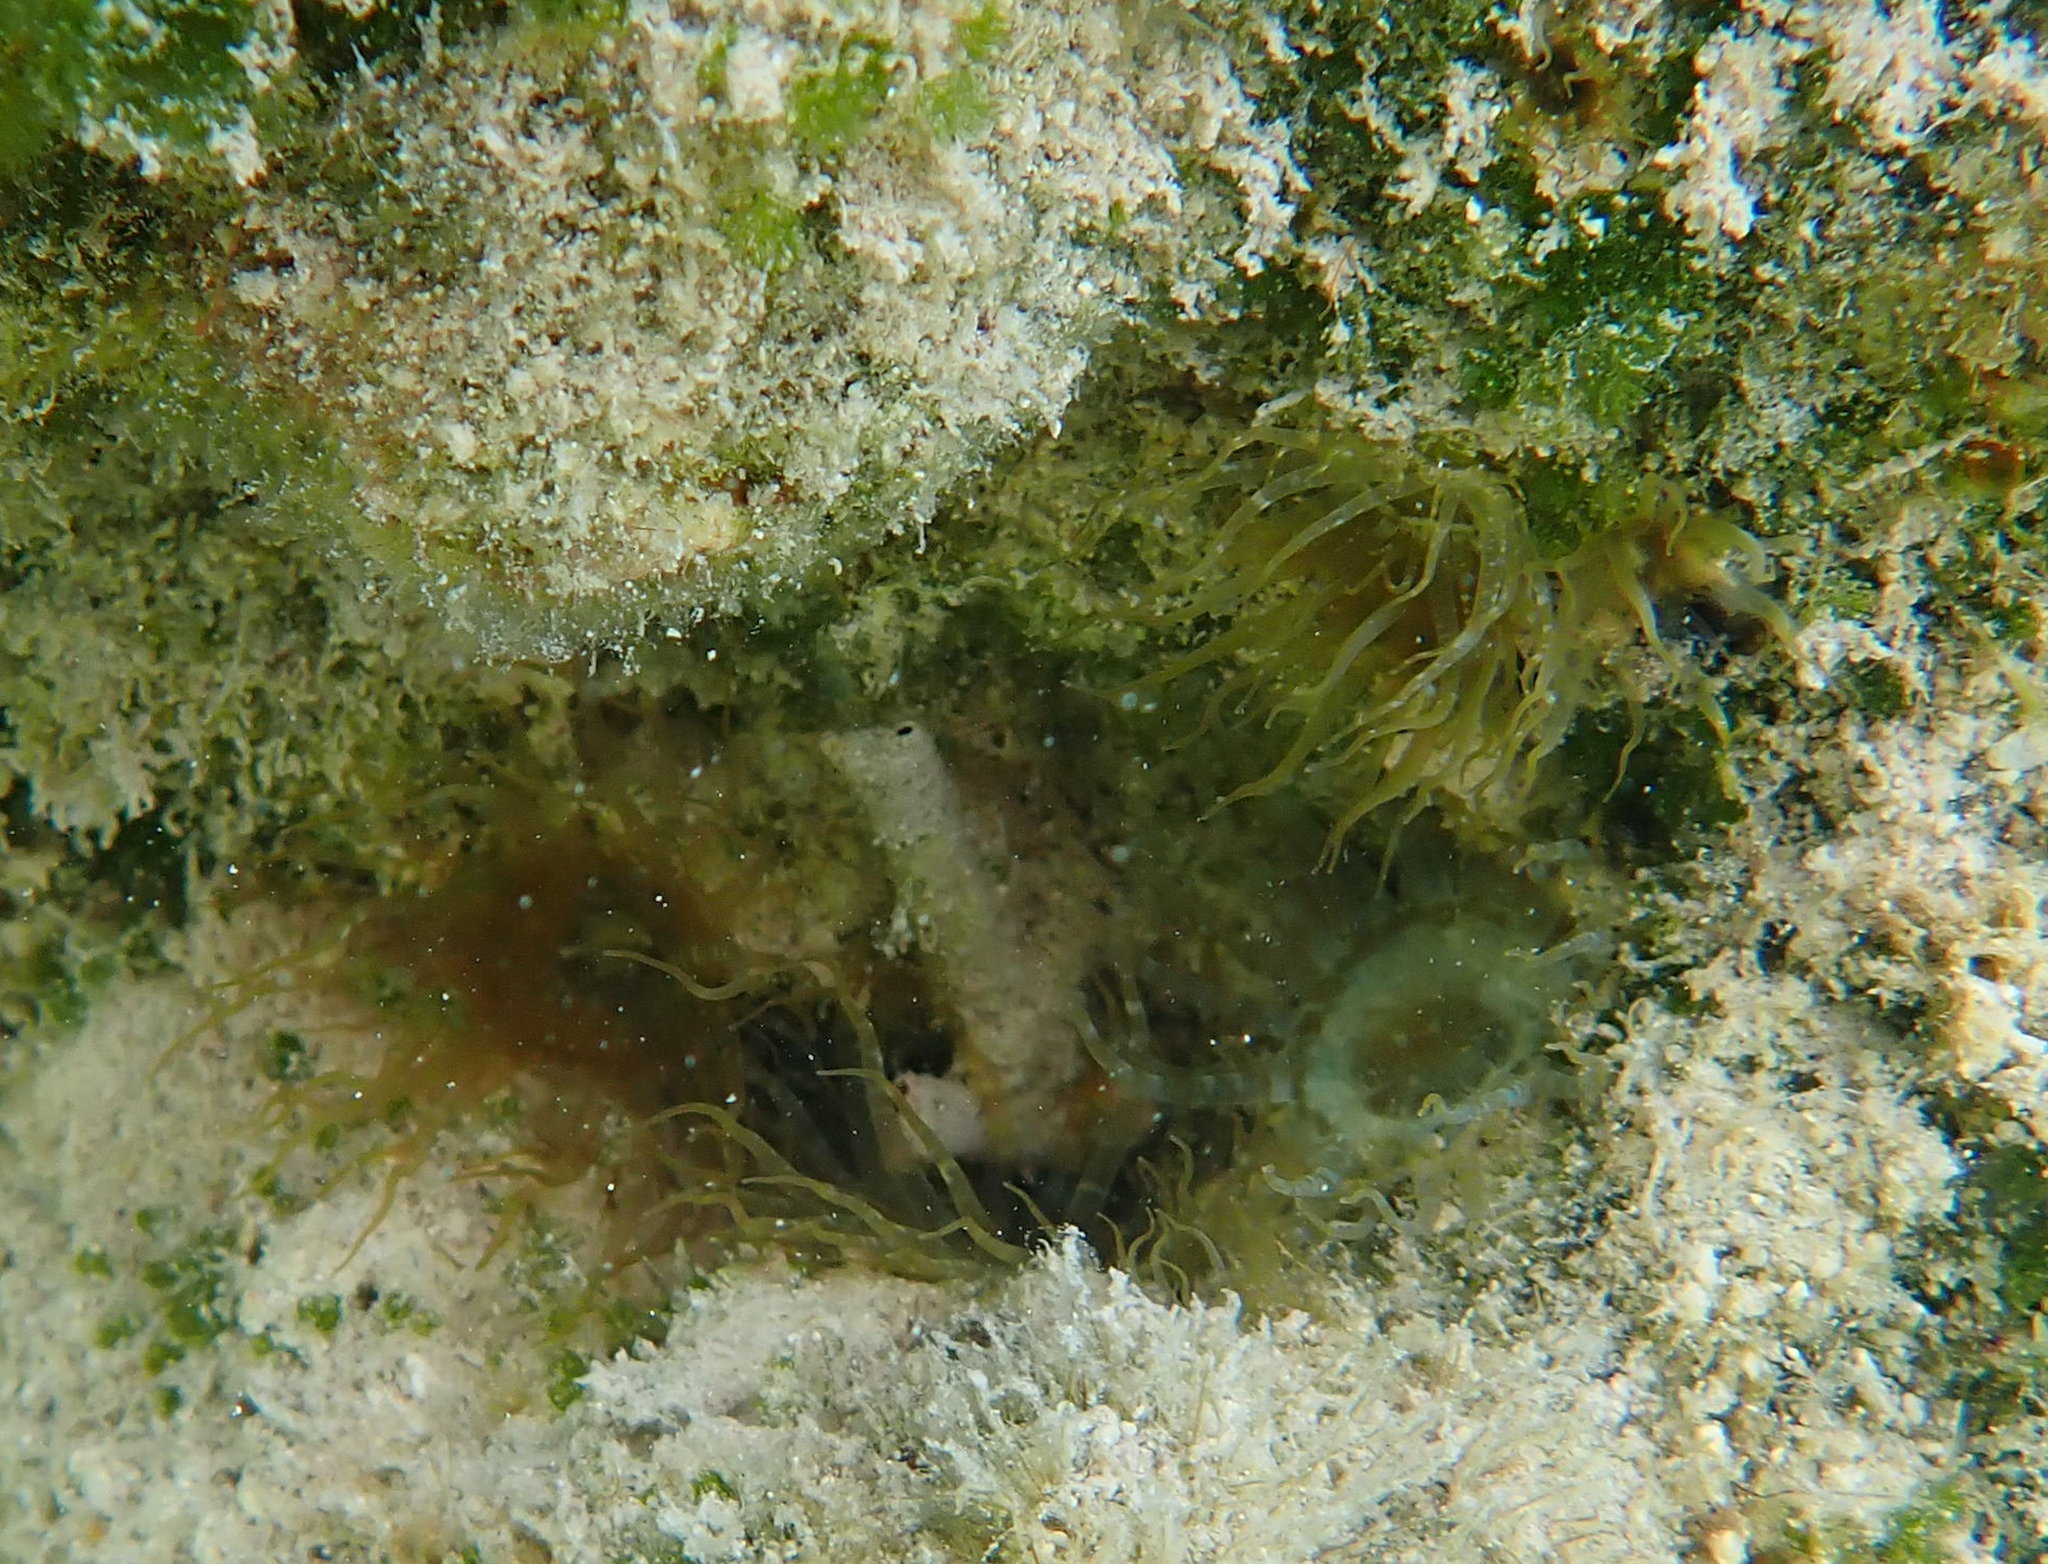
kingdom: Animalia
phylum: Cnidaria
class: Anthozoa
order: Actiniaria
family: Aiptasiidae
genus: Exaiptasia
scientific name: Exaiptasia diaphana
